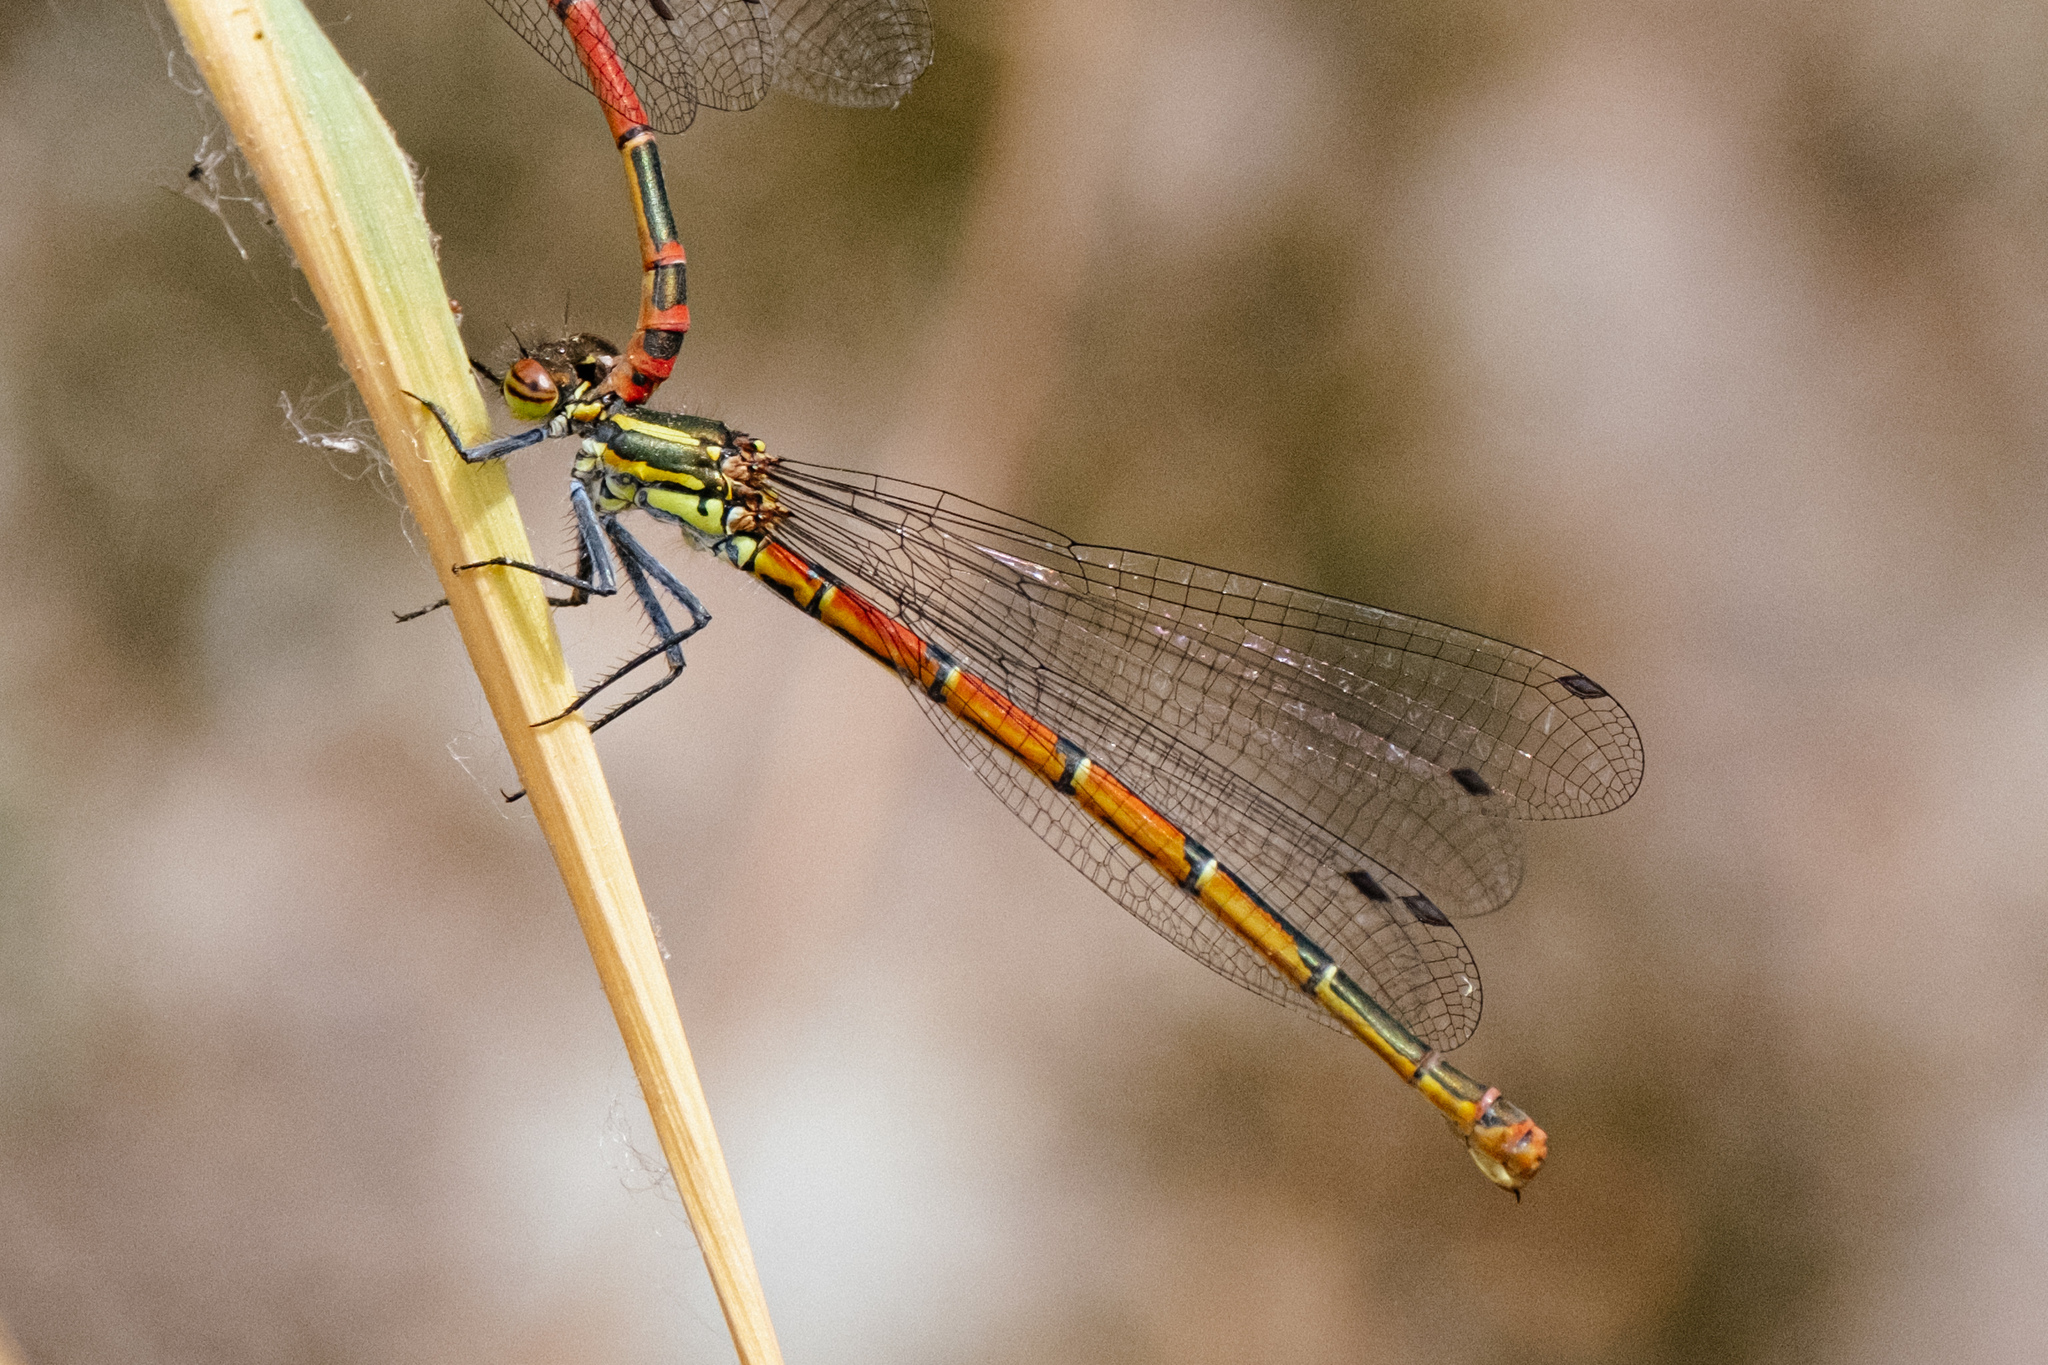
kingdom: Animalia
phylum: Arthropoda
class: Insecta
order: Odonata
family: Coenagrionidae
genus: Pyrrhosoma
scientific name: Pyrrhosoma nymphula
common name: Large red damsel
